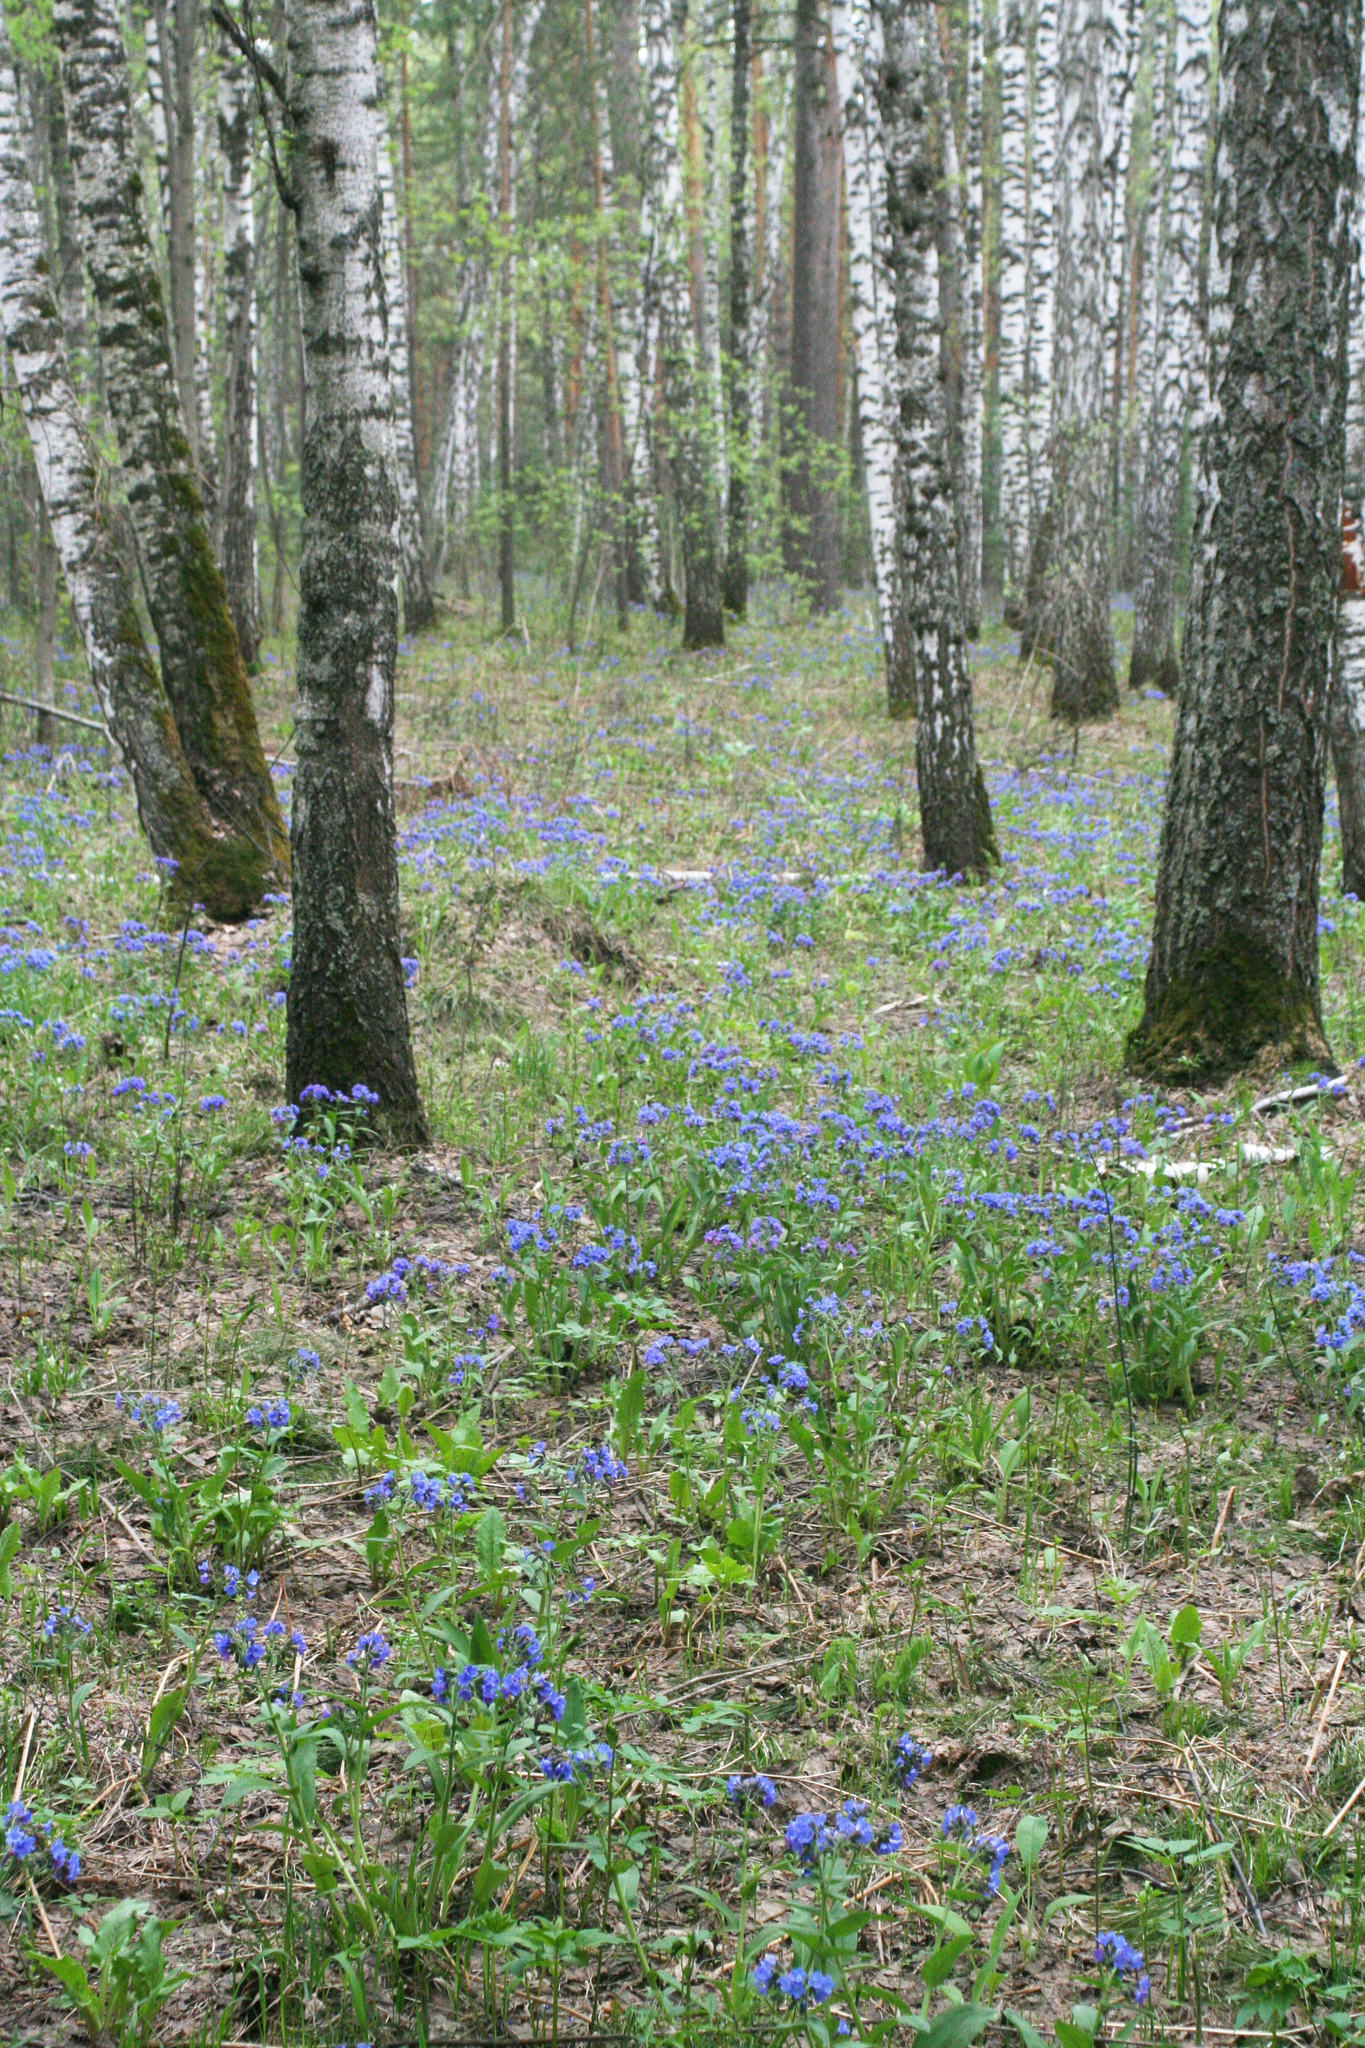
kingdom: Plantae
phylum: Tracheophyta
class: Magnoliopsida
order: Boraginales
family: Boraginaceae
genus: Pulmonaria
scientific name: Pulmonaria mollis
